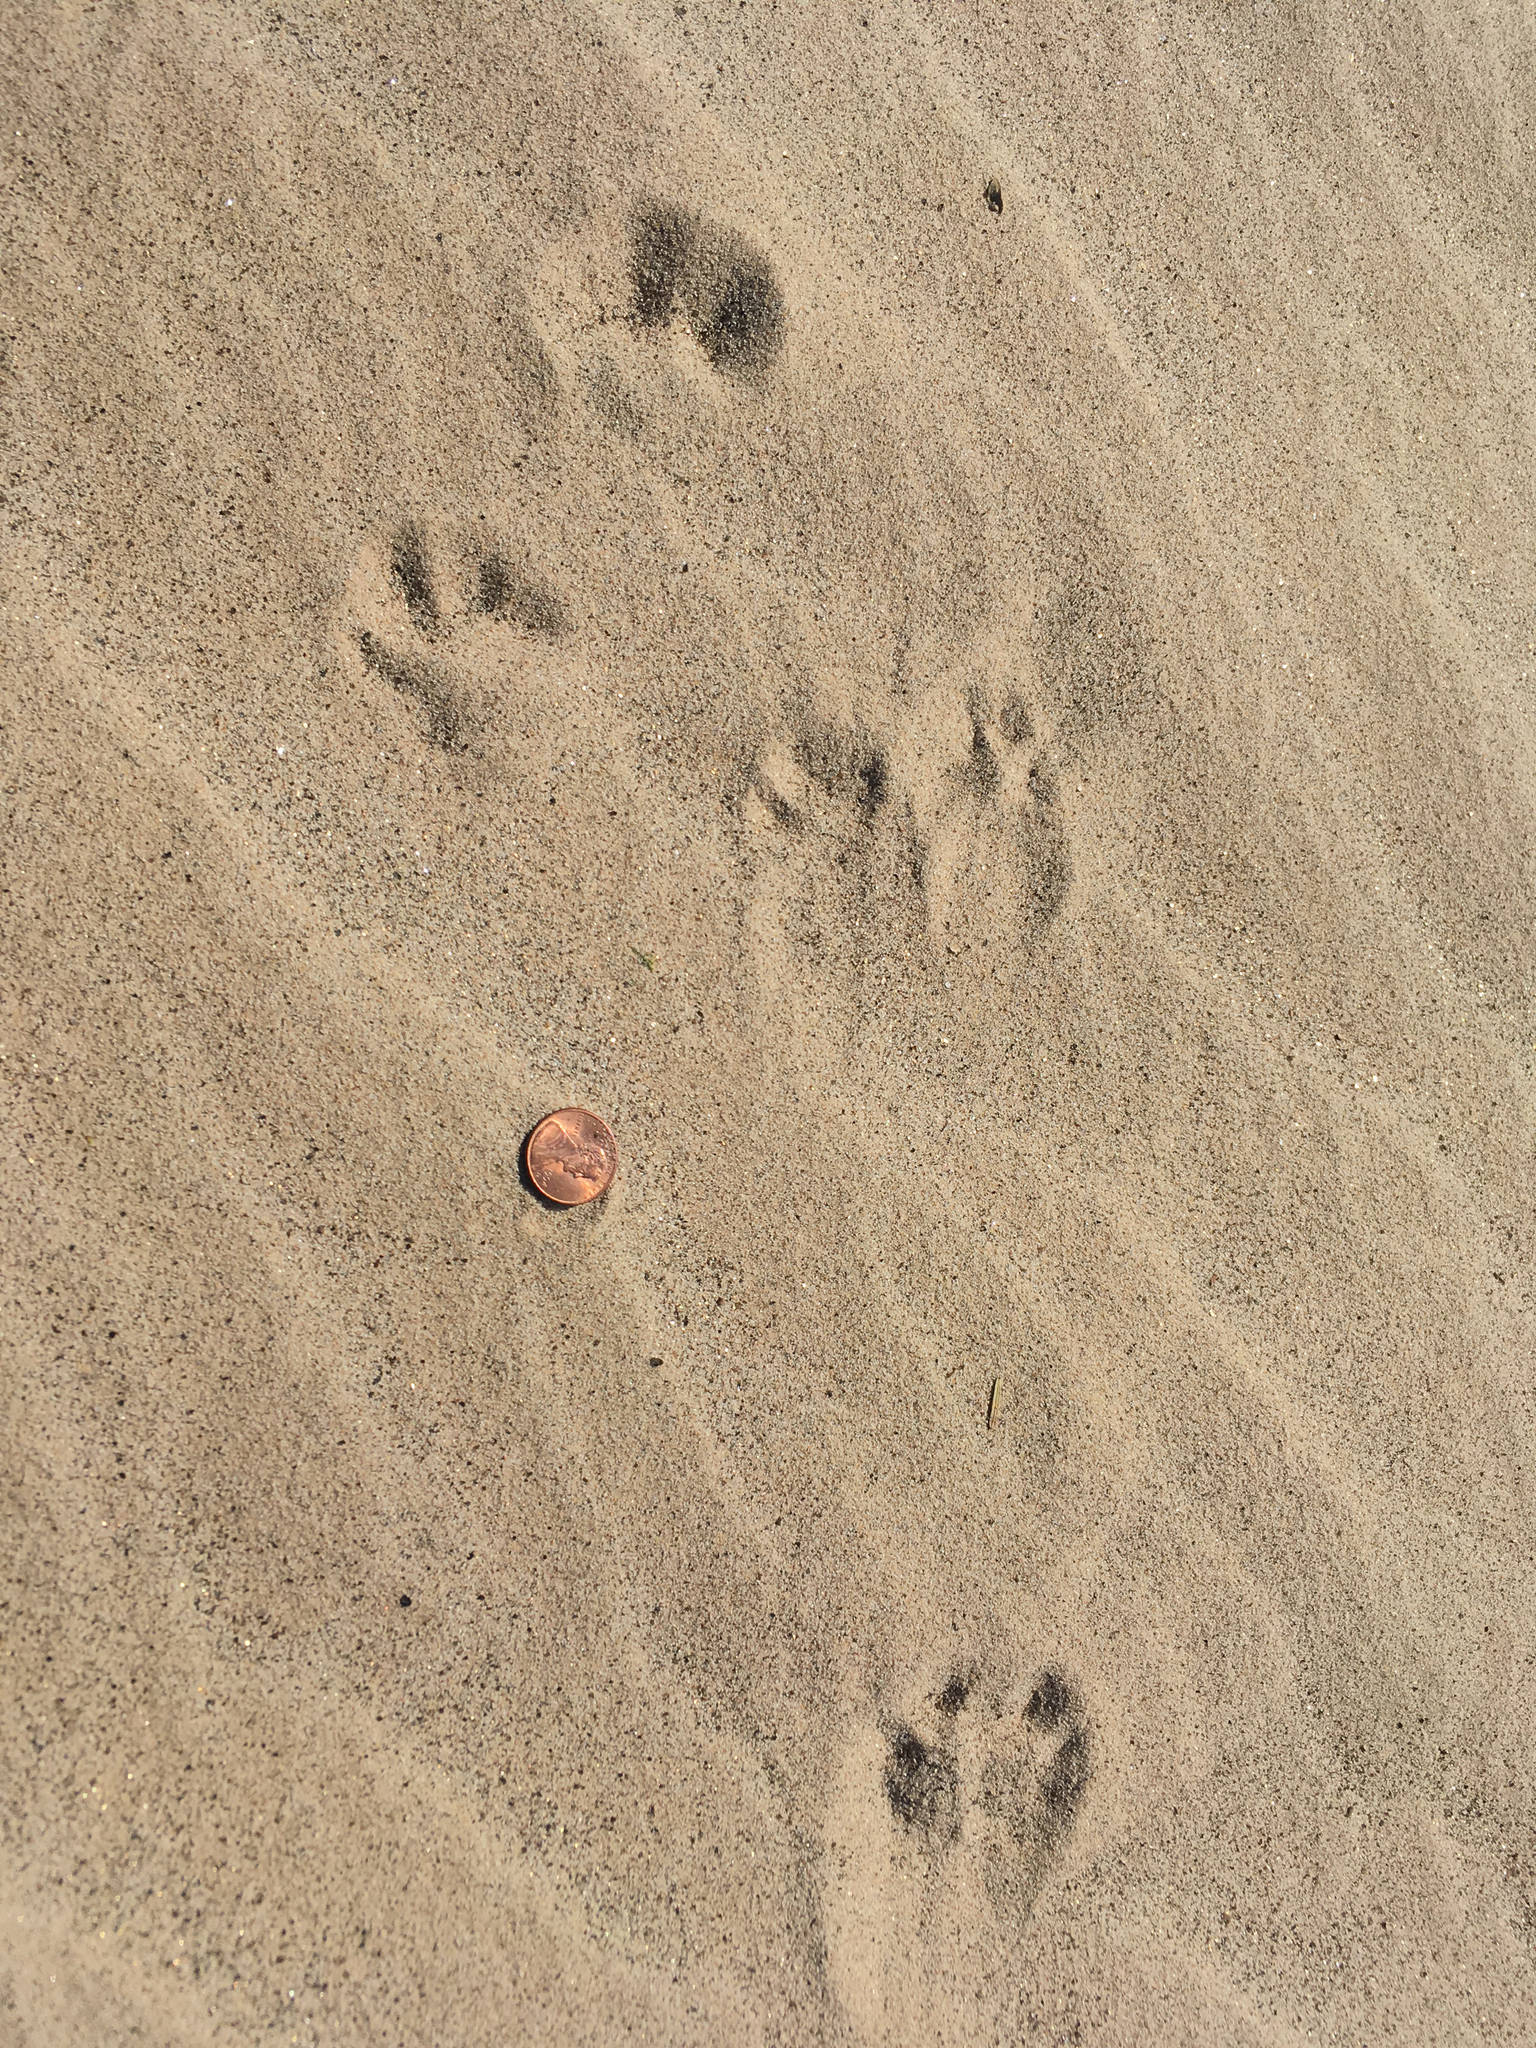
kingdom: Animalia
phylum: Chordata
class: Mammalia
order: Lagomorpha
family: Leporidae
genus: Lepus
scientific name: Lepus californicus
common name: Black-tailed jackrabbit
